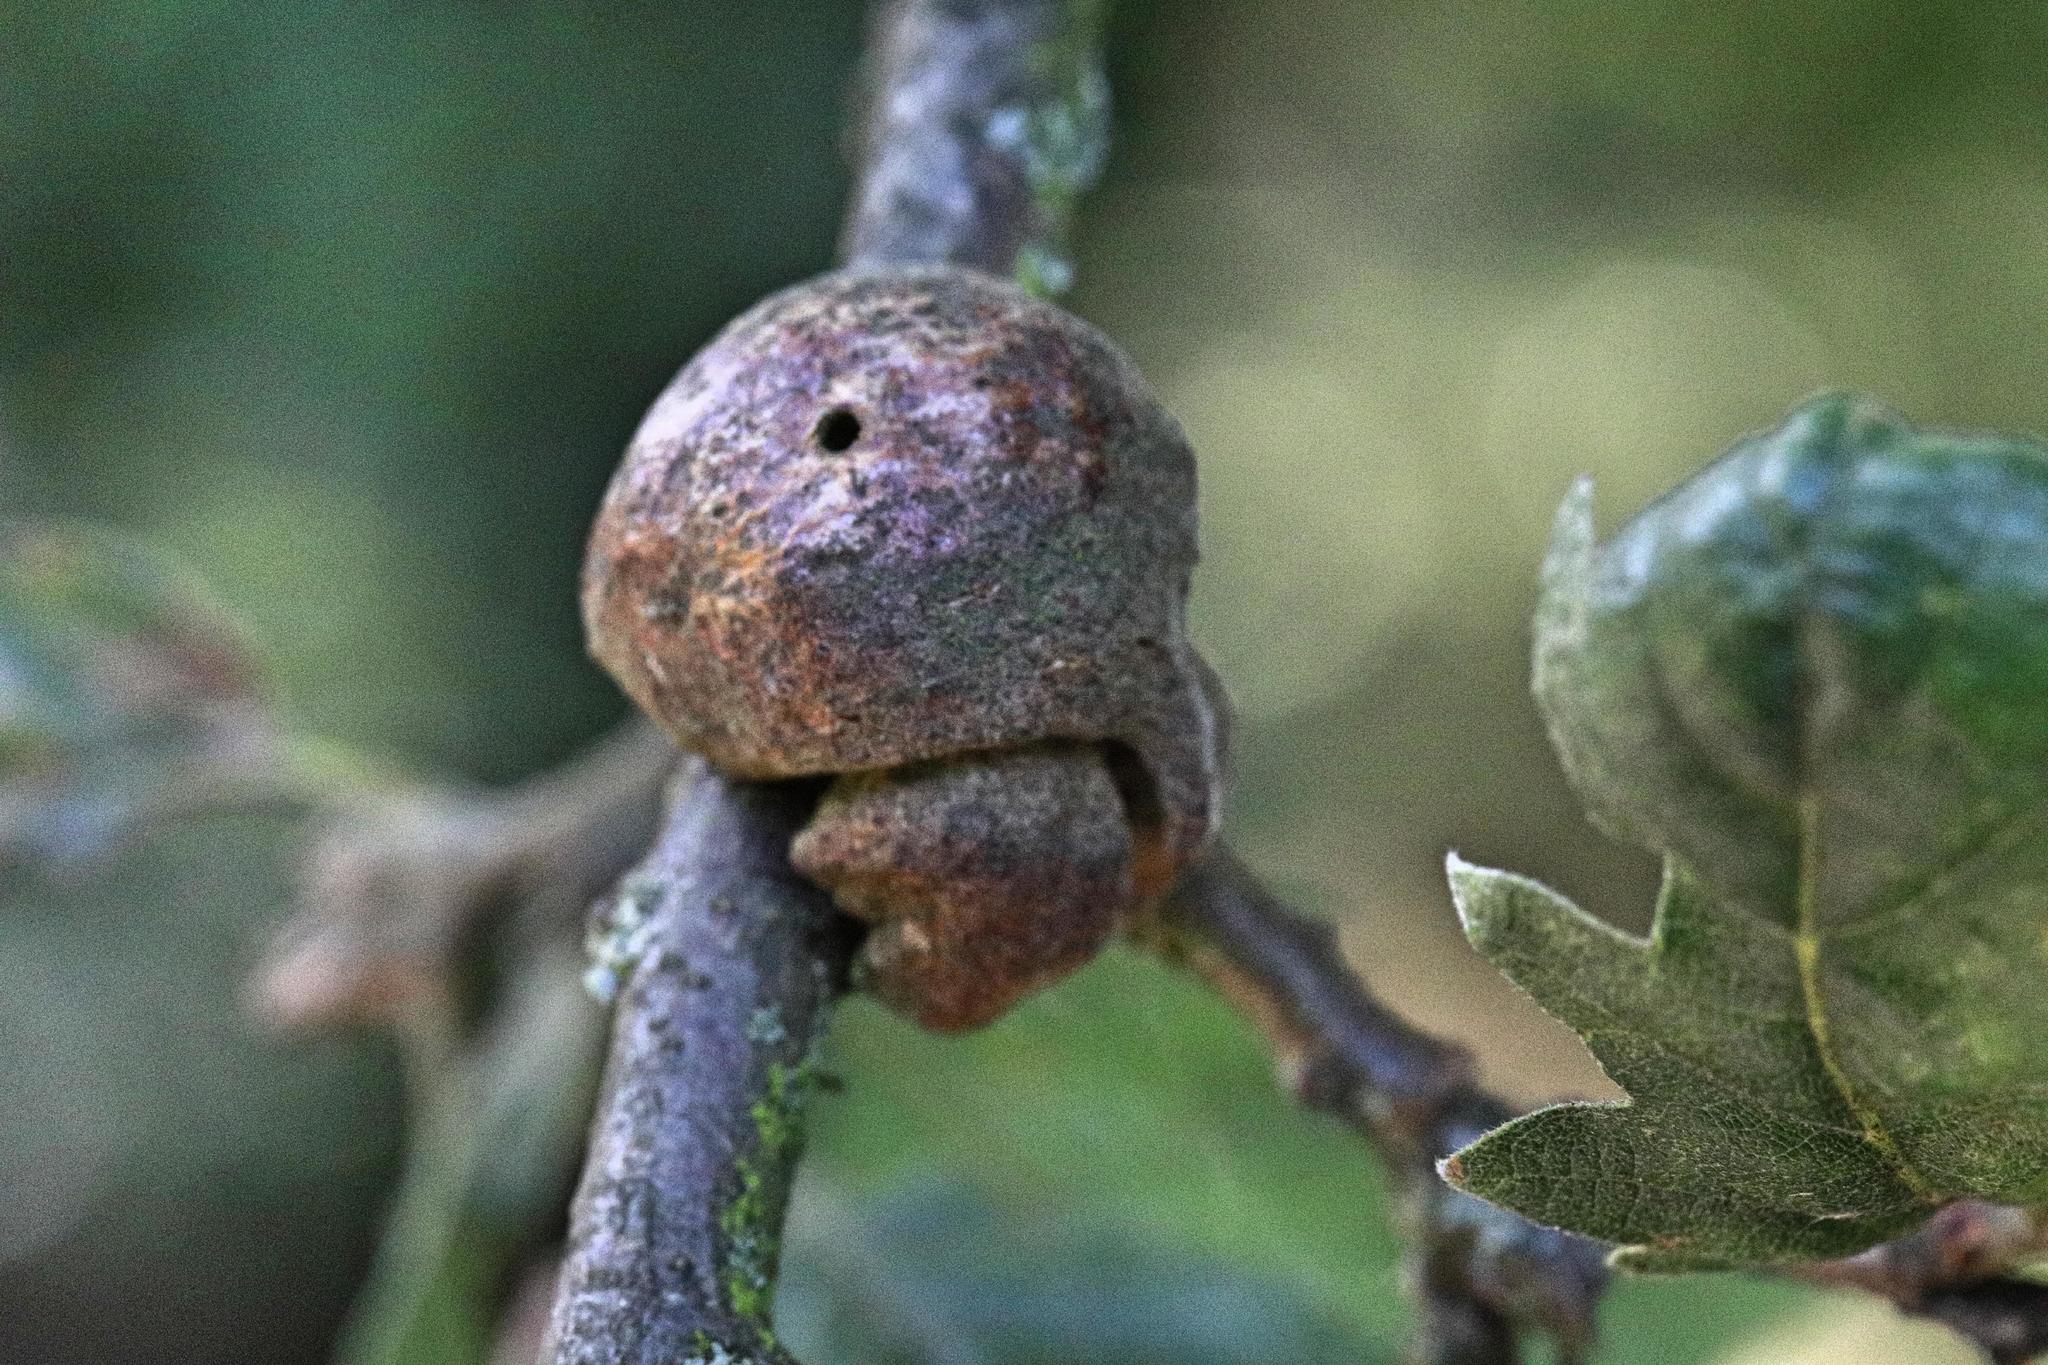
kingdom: Animalia
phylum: Arthropoda
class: Insecta
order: Hymenoptera
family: Cynipidae
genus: Aphelonyx
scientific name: Aphelonyx cerricola
